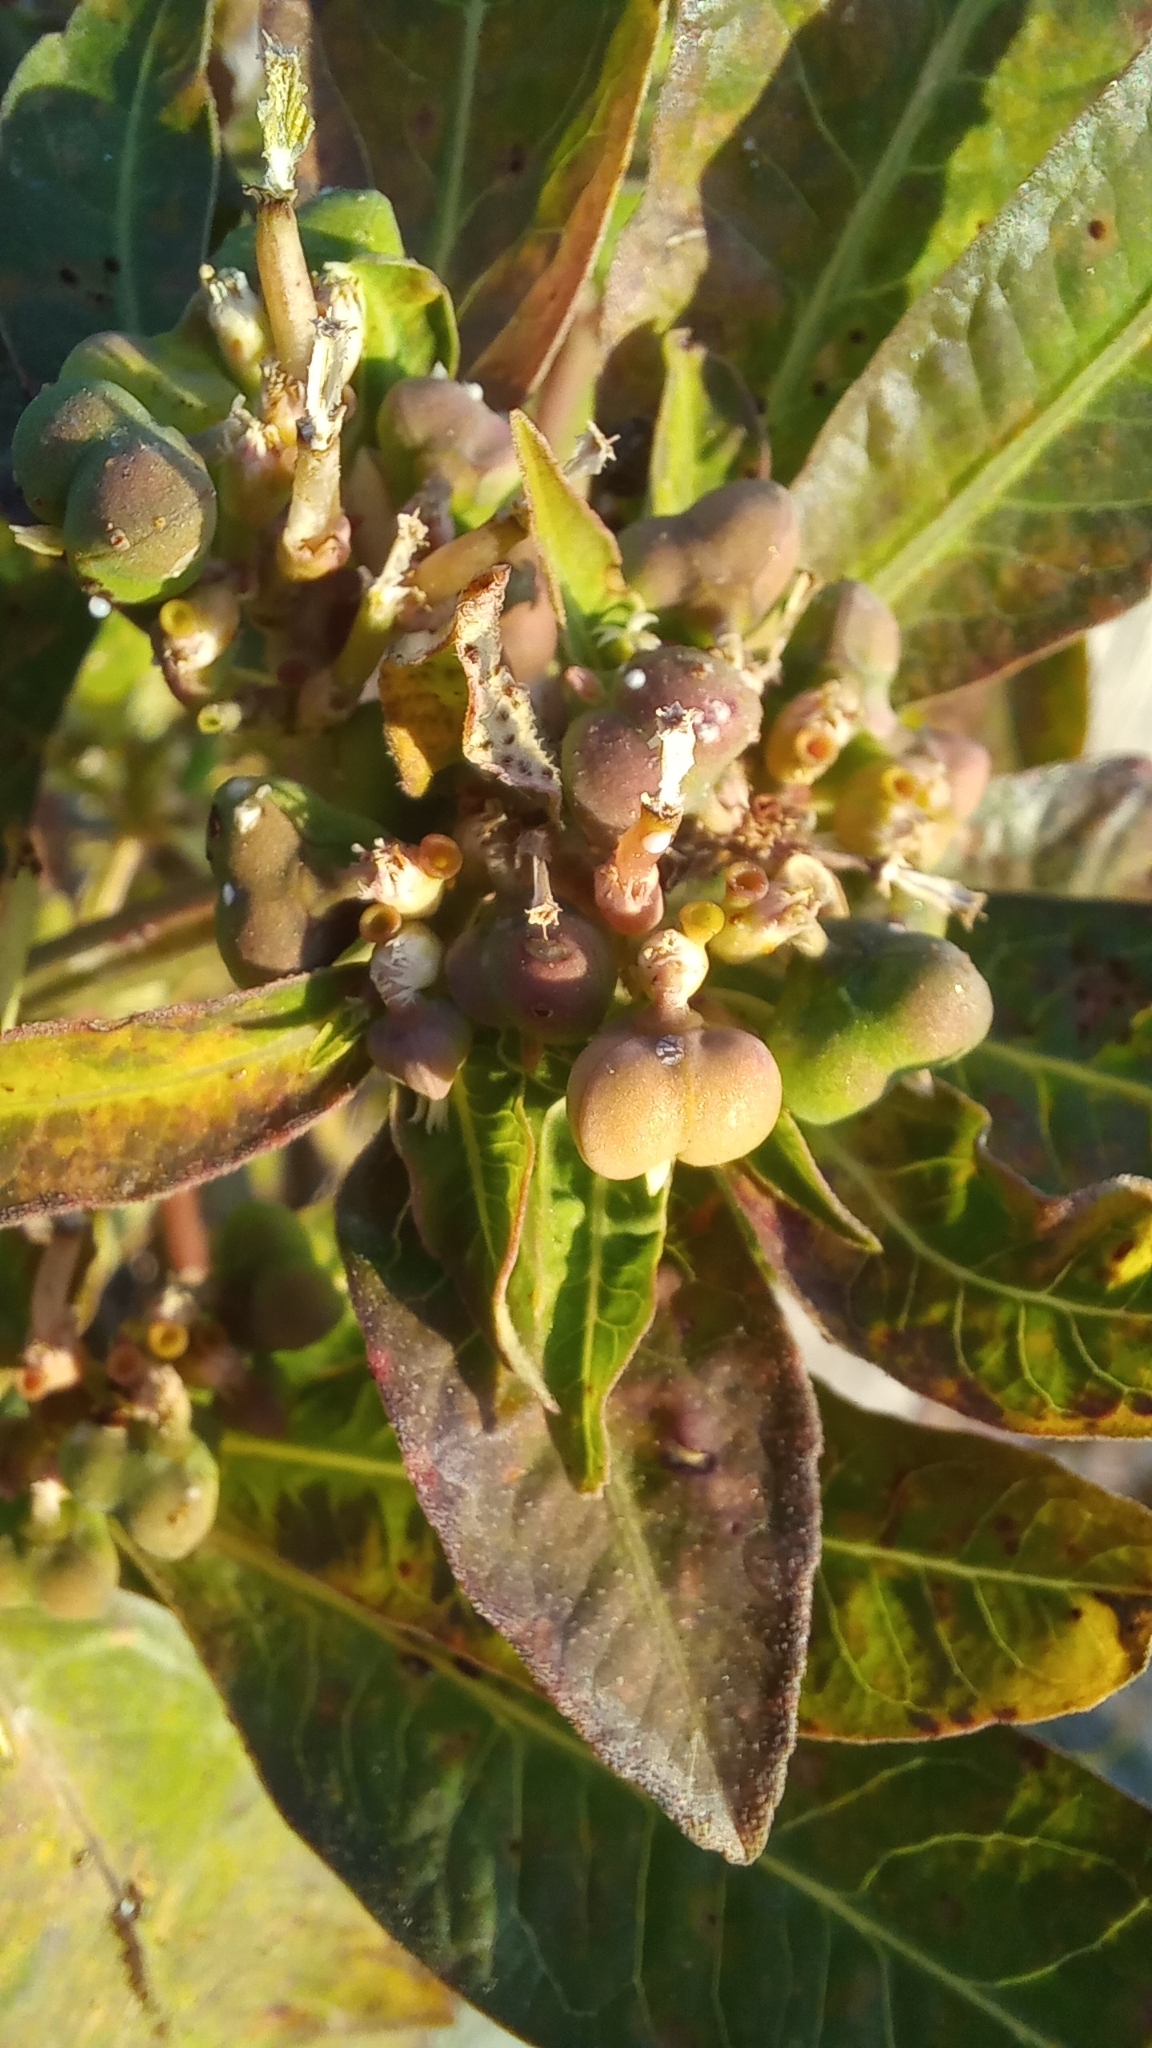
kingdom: Plantae
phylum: Tracheophyta
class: Magnoliopsida
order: Malpighiales
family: Euphorbiaceae
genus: Euphorbia
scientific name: Euphorbia heterophylla
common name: Mexican fireplant
